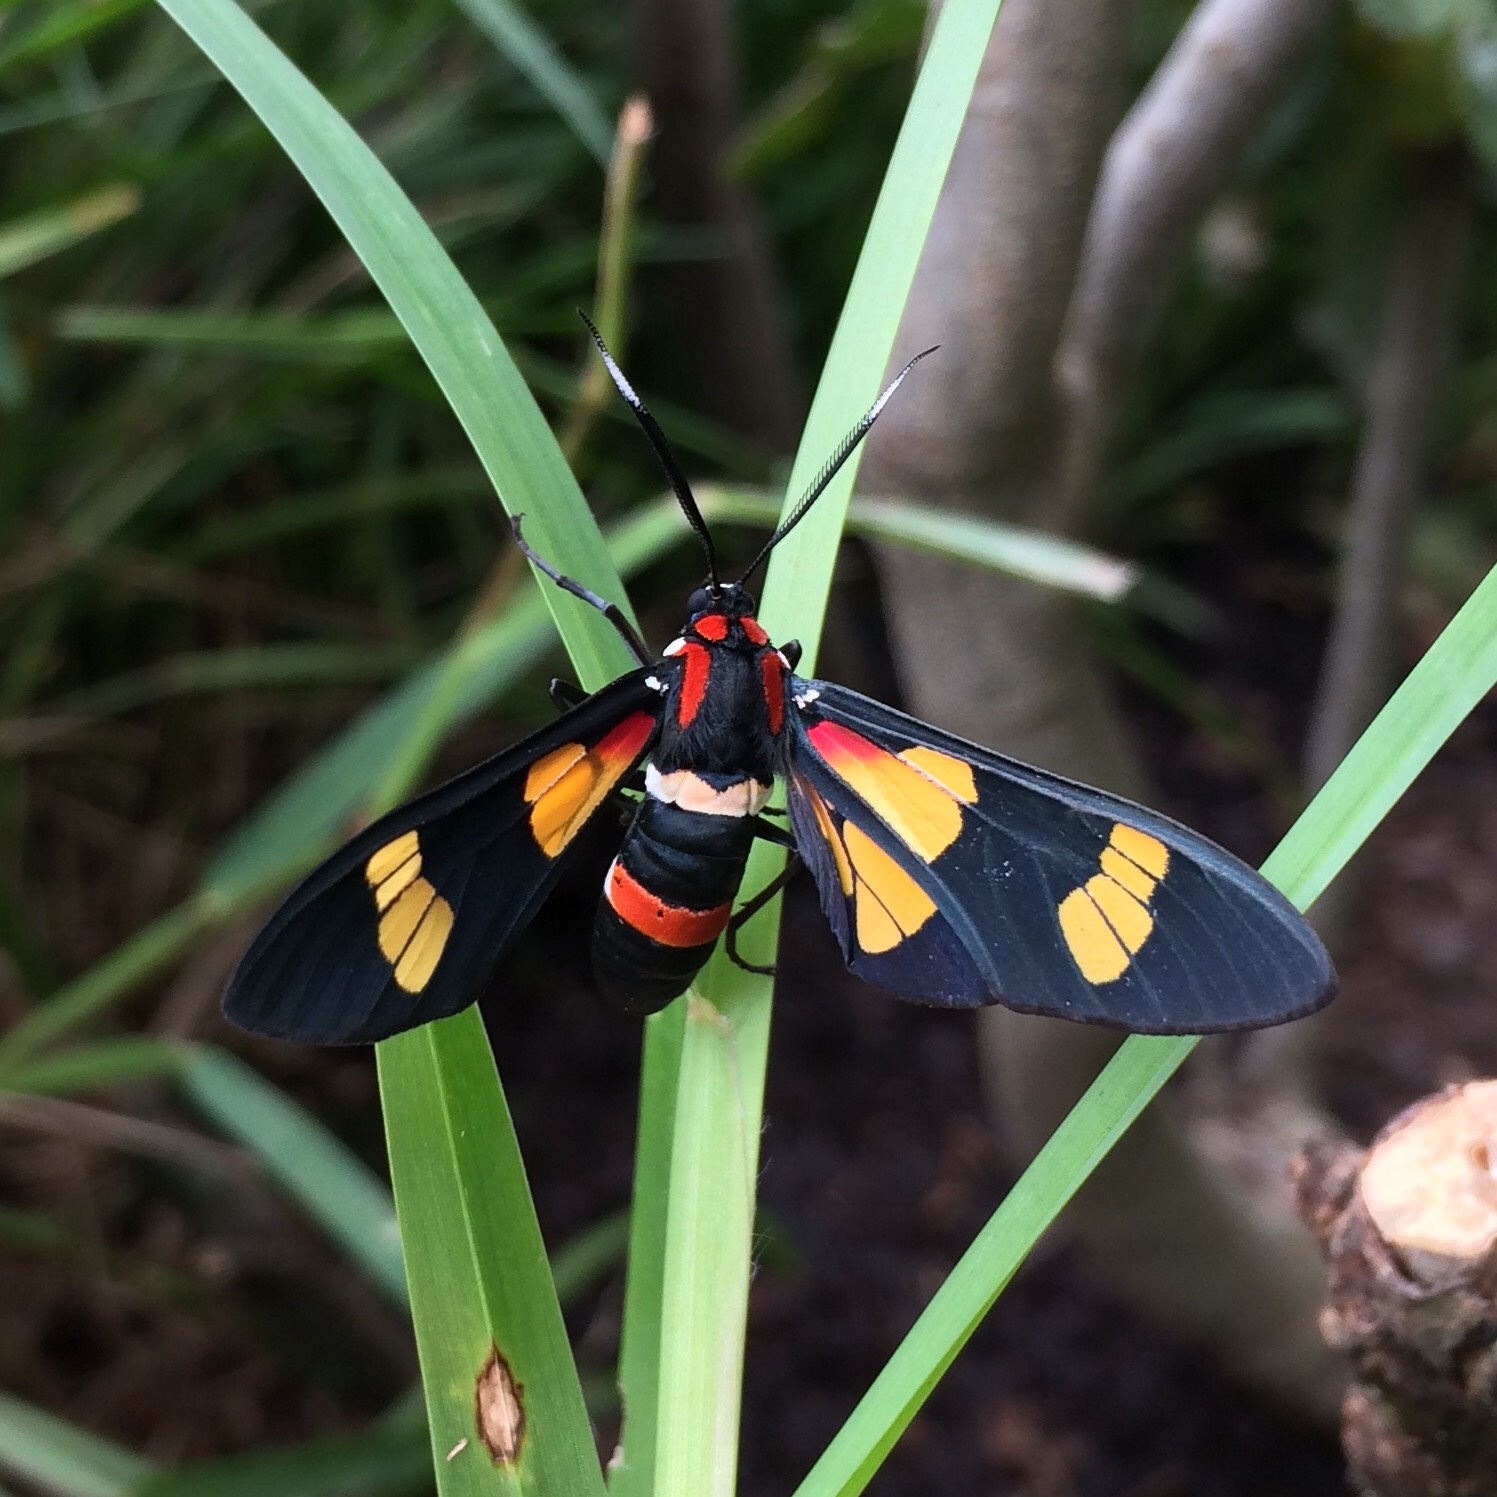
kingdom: Animalia
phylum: Arthropoda
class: Insecta
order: Lepidoptera
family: Erebidae
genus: Euchromia
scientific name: Euchromia amoena
